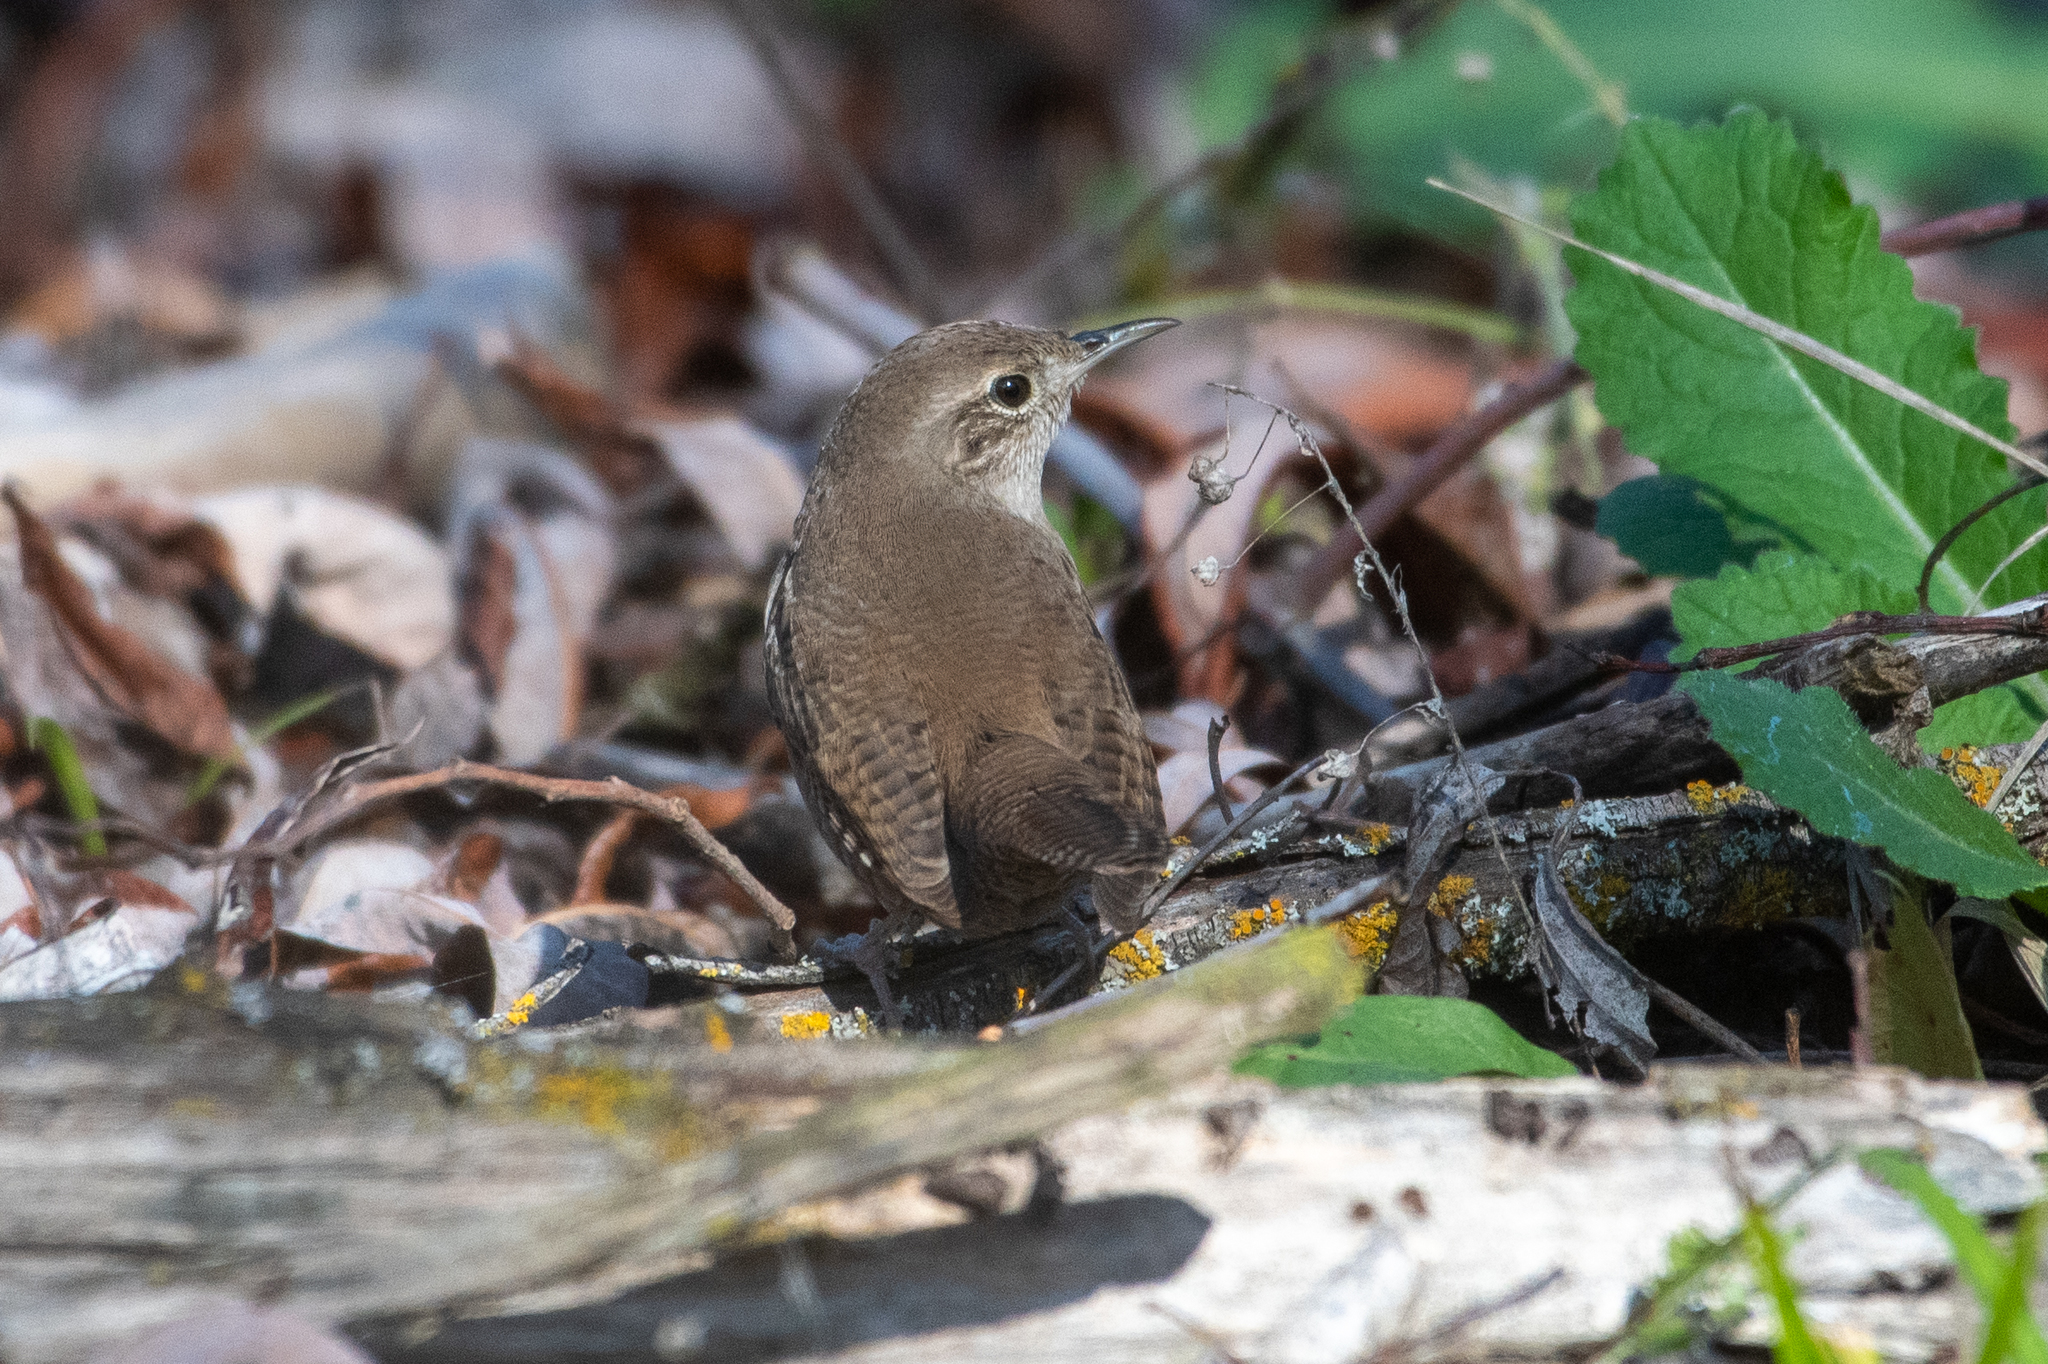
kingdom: Animalia
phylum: Chordata
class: Aves
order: Passeriformes
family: Troglodytidae
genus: Troglodytes
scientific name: Troglodytes aedon
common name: House wren
